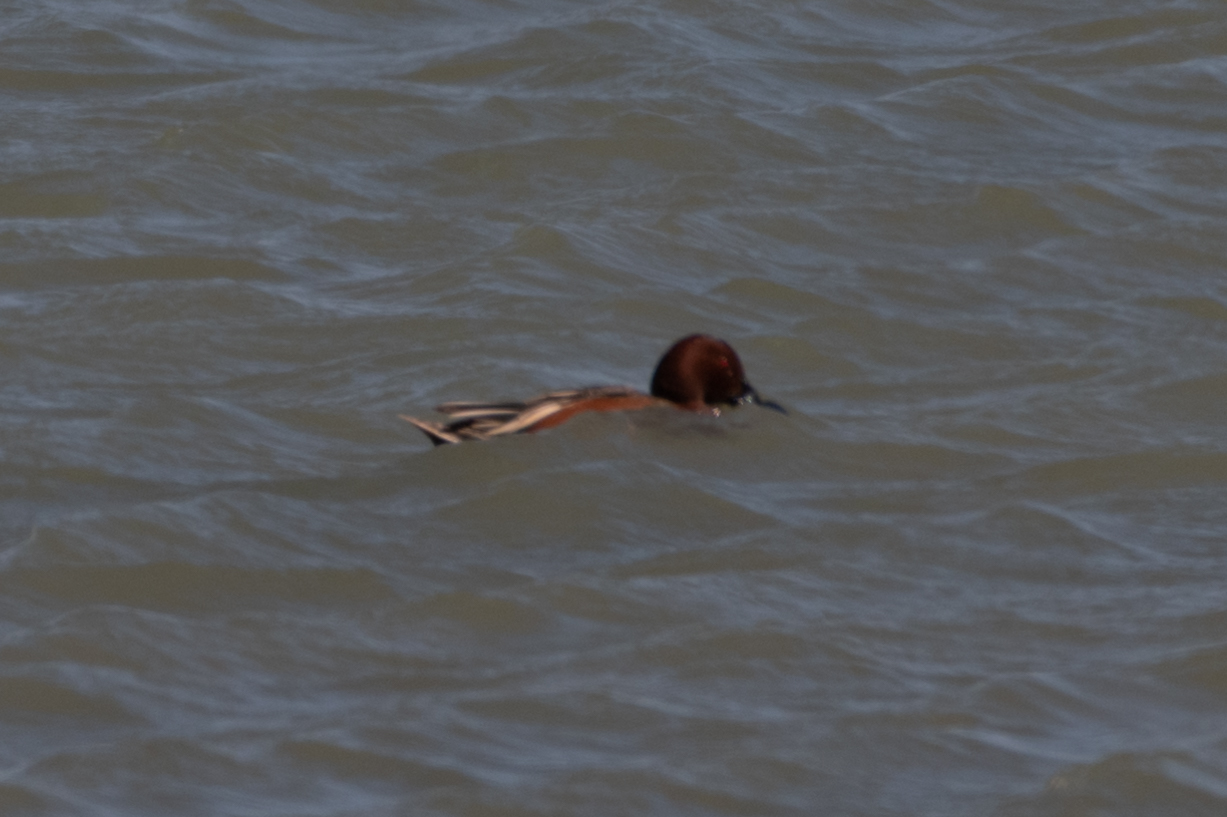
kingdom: Animalia
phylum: Chordata
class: Aves
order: Anseriformes
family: Anatidae
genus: Spatula
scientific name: Spatula cyanoptera
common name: Cinnamon teal
